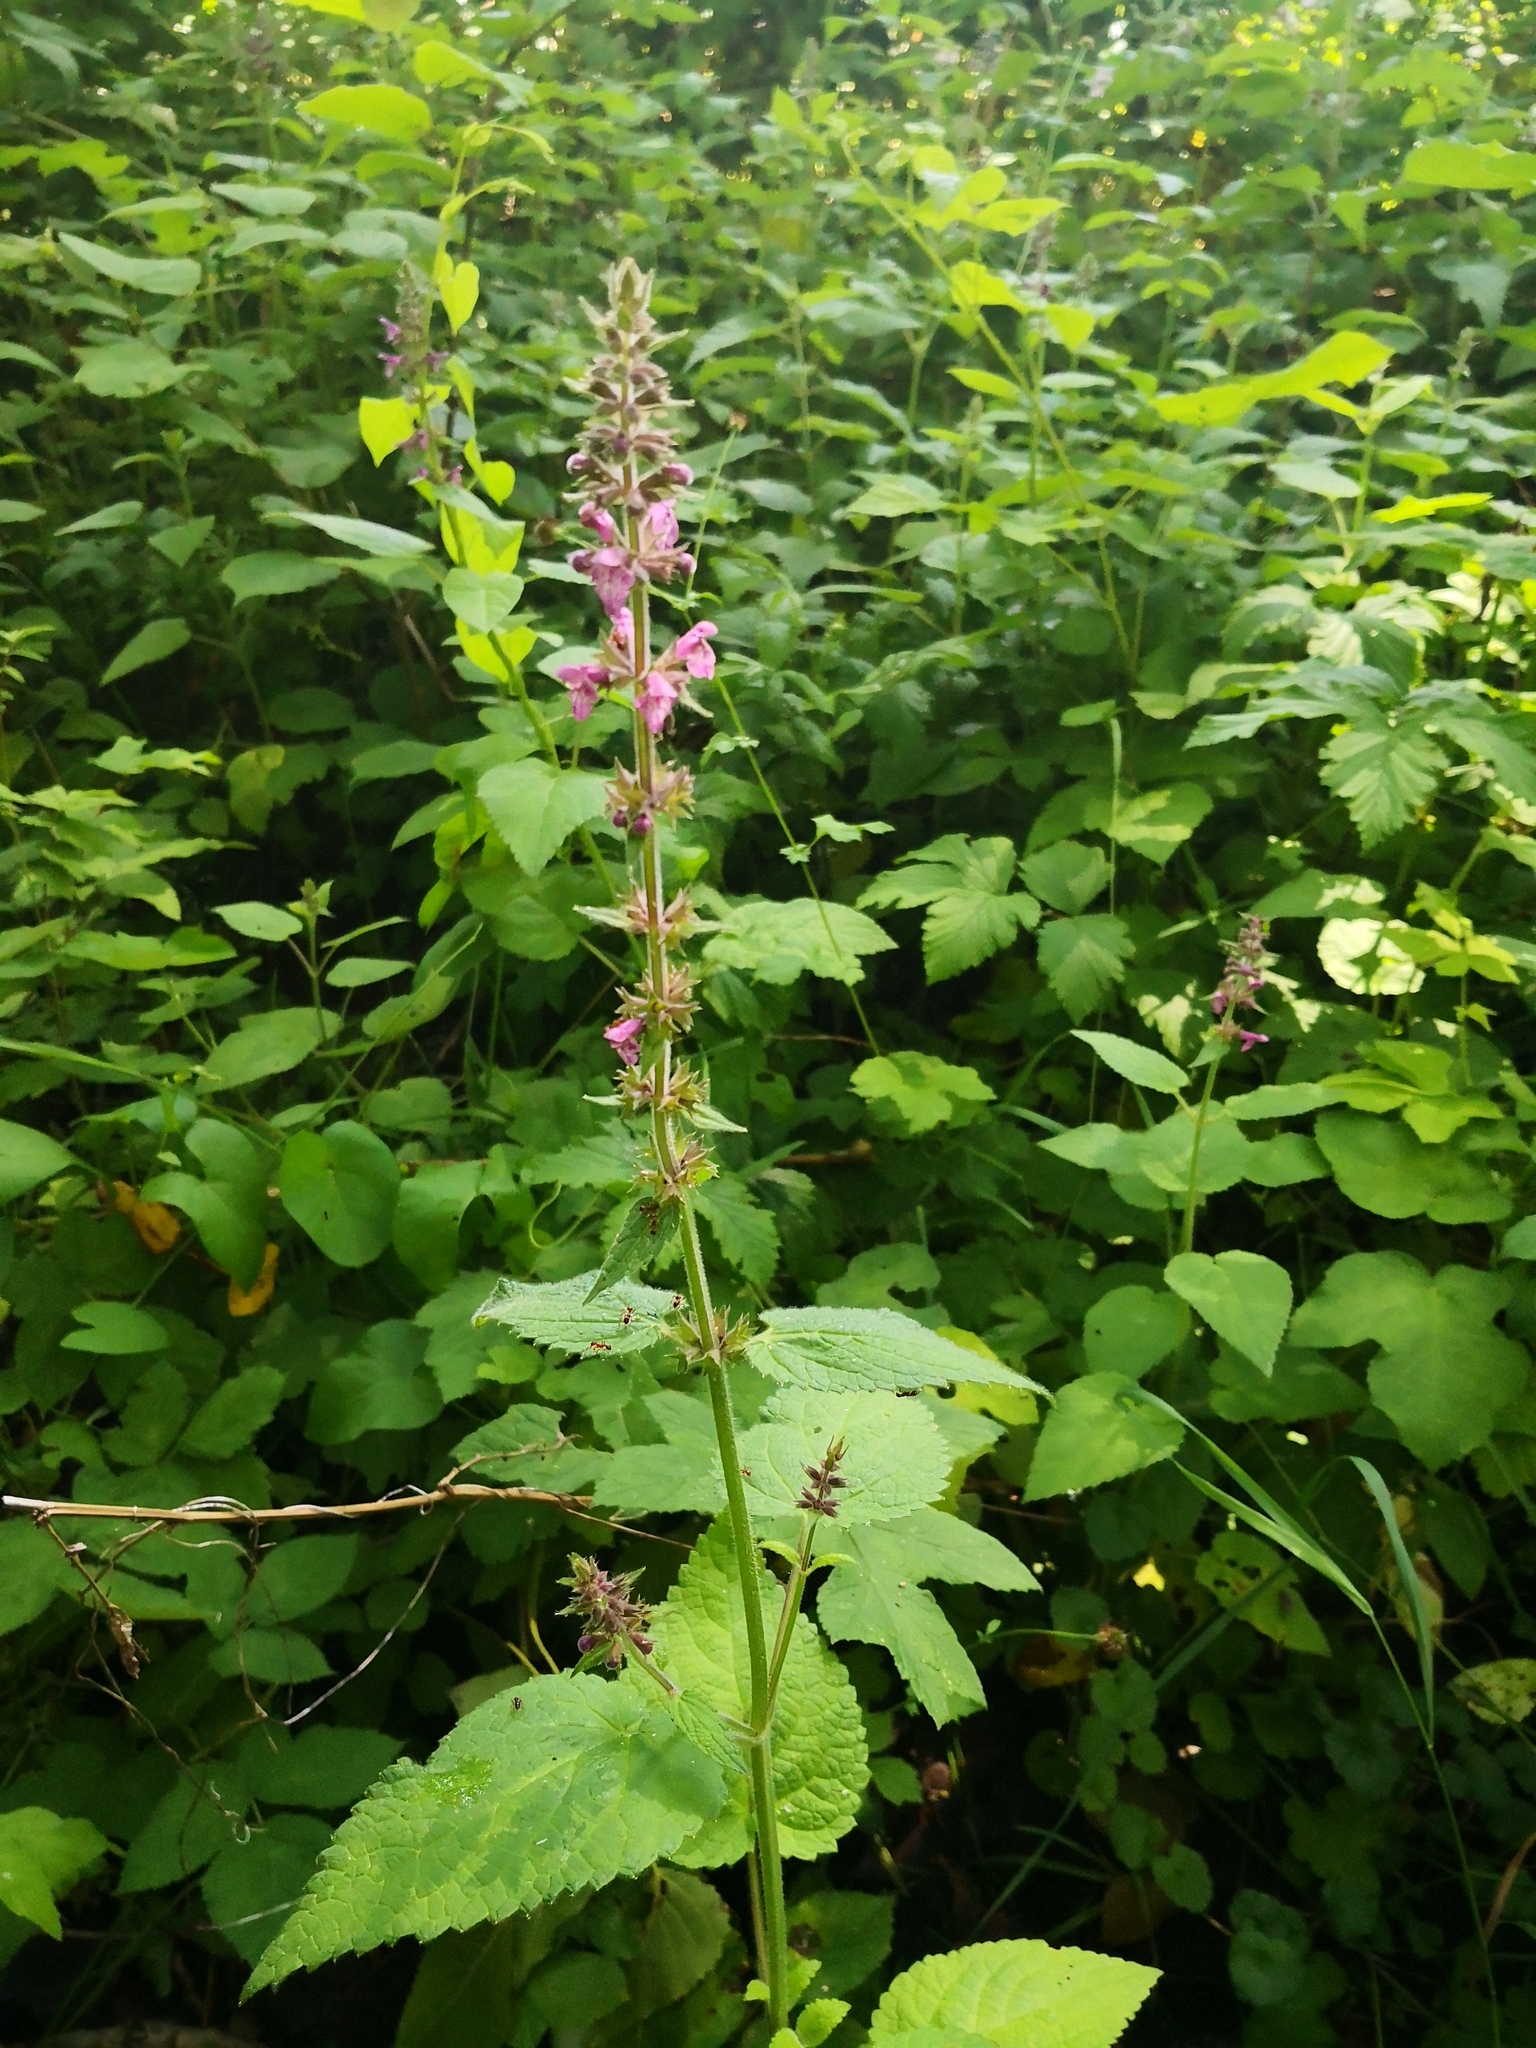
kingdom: Plantae
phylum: Tracheophyta
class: Magnoliopsida
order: Lamiales
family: Lamiaceae
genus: Stachys
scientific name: Stachys sylvatica
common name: Hedge woundwort
